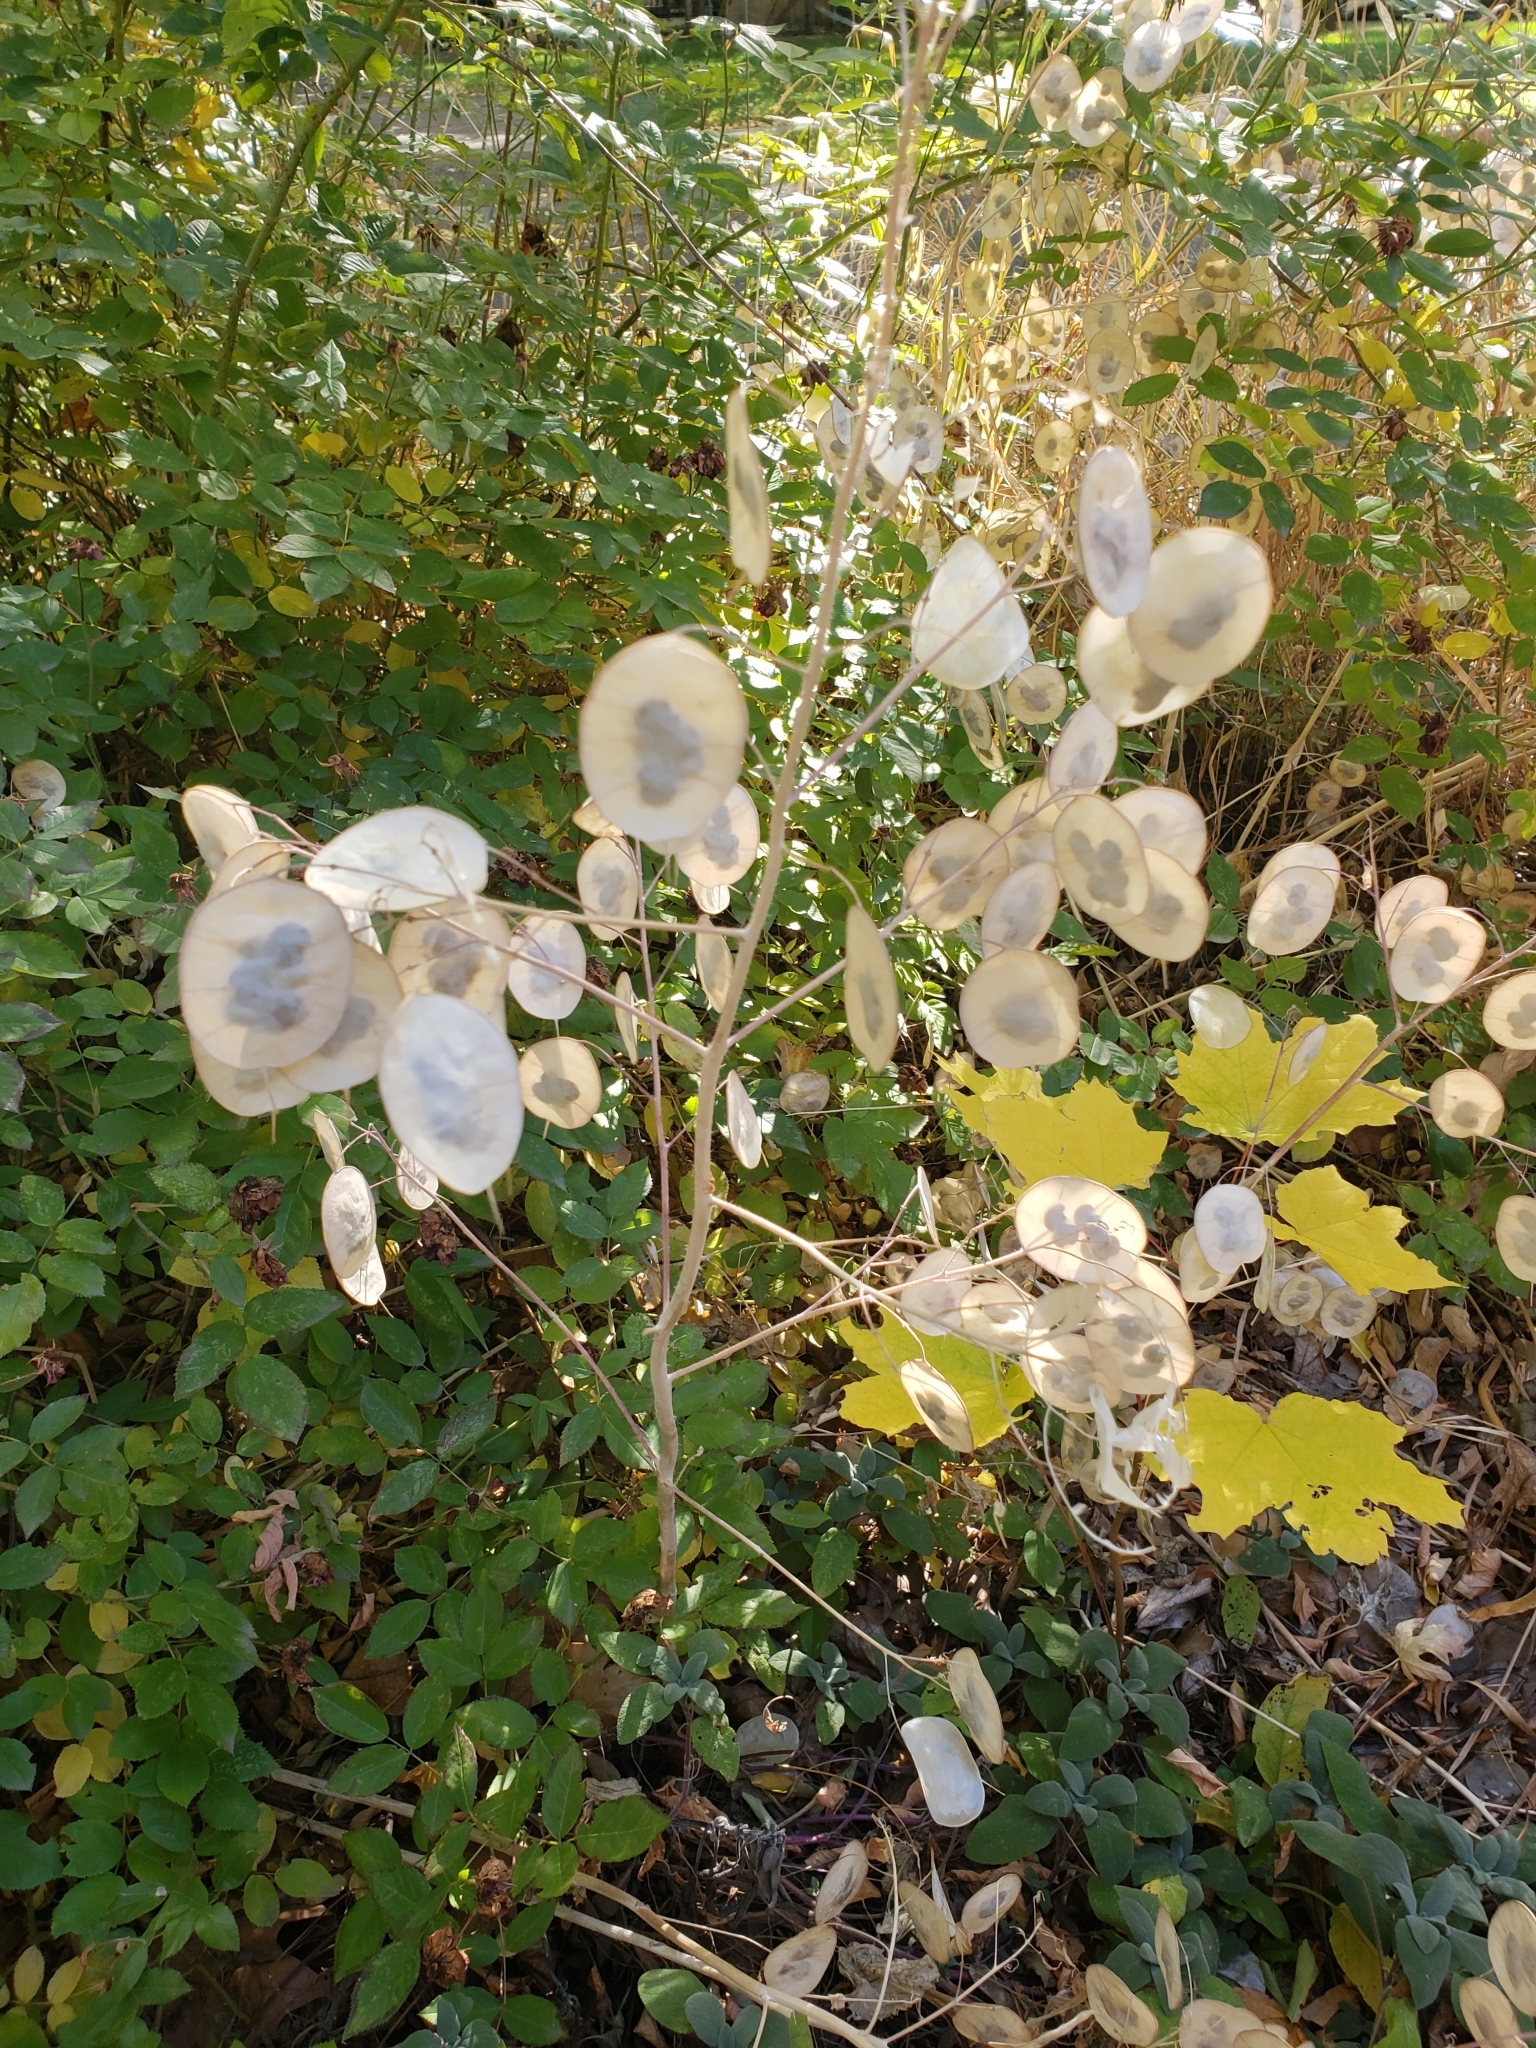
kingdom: Plantae
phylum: Tracheophyta
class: Magnoliopsida
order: Brassicales
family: Brassicaceae
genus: Lunaria
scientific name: Lunaria annua
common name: Honesty
